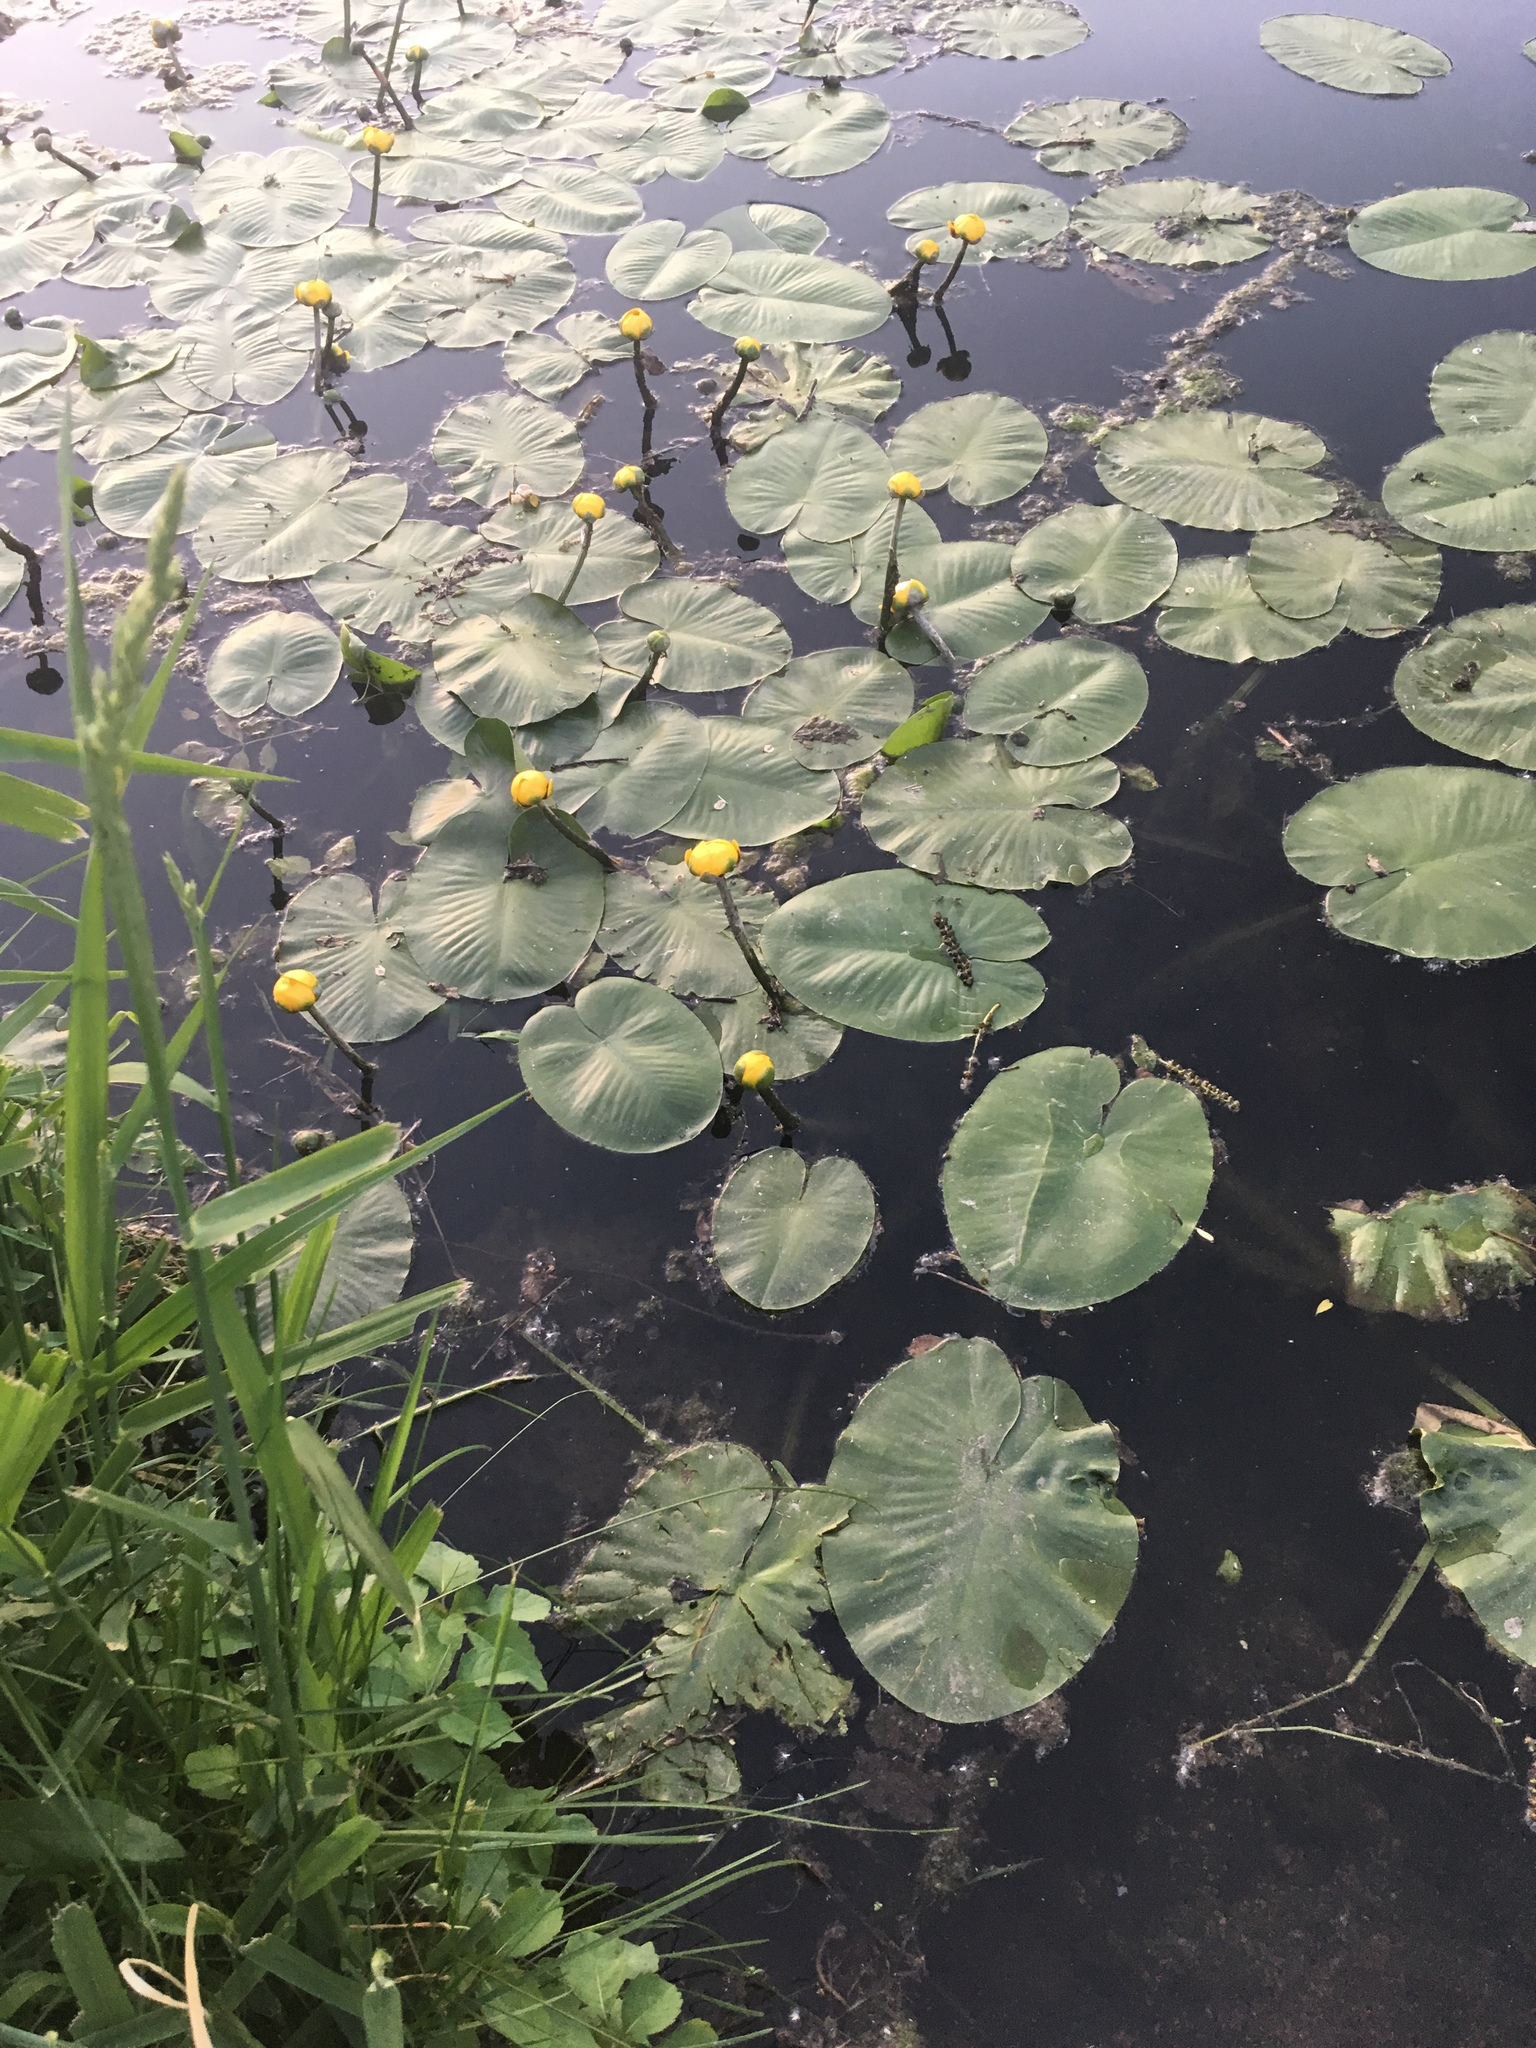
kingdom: Plantae
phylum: Tracheophyta
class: Magnoliopsida
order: Nymphaeales
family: Nymphaeaceae
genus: Nuphar
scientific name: Nuphar variegata
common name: Beaver-root
